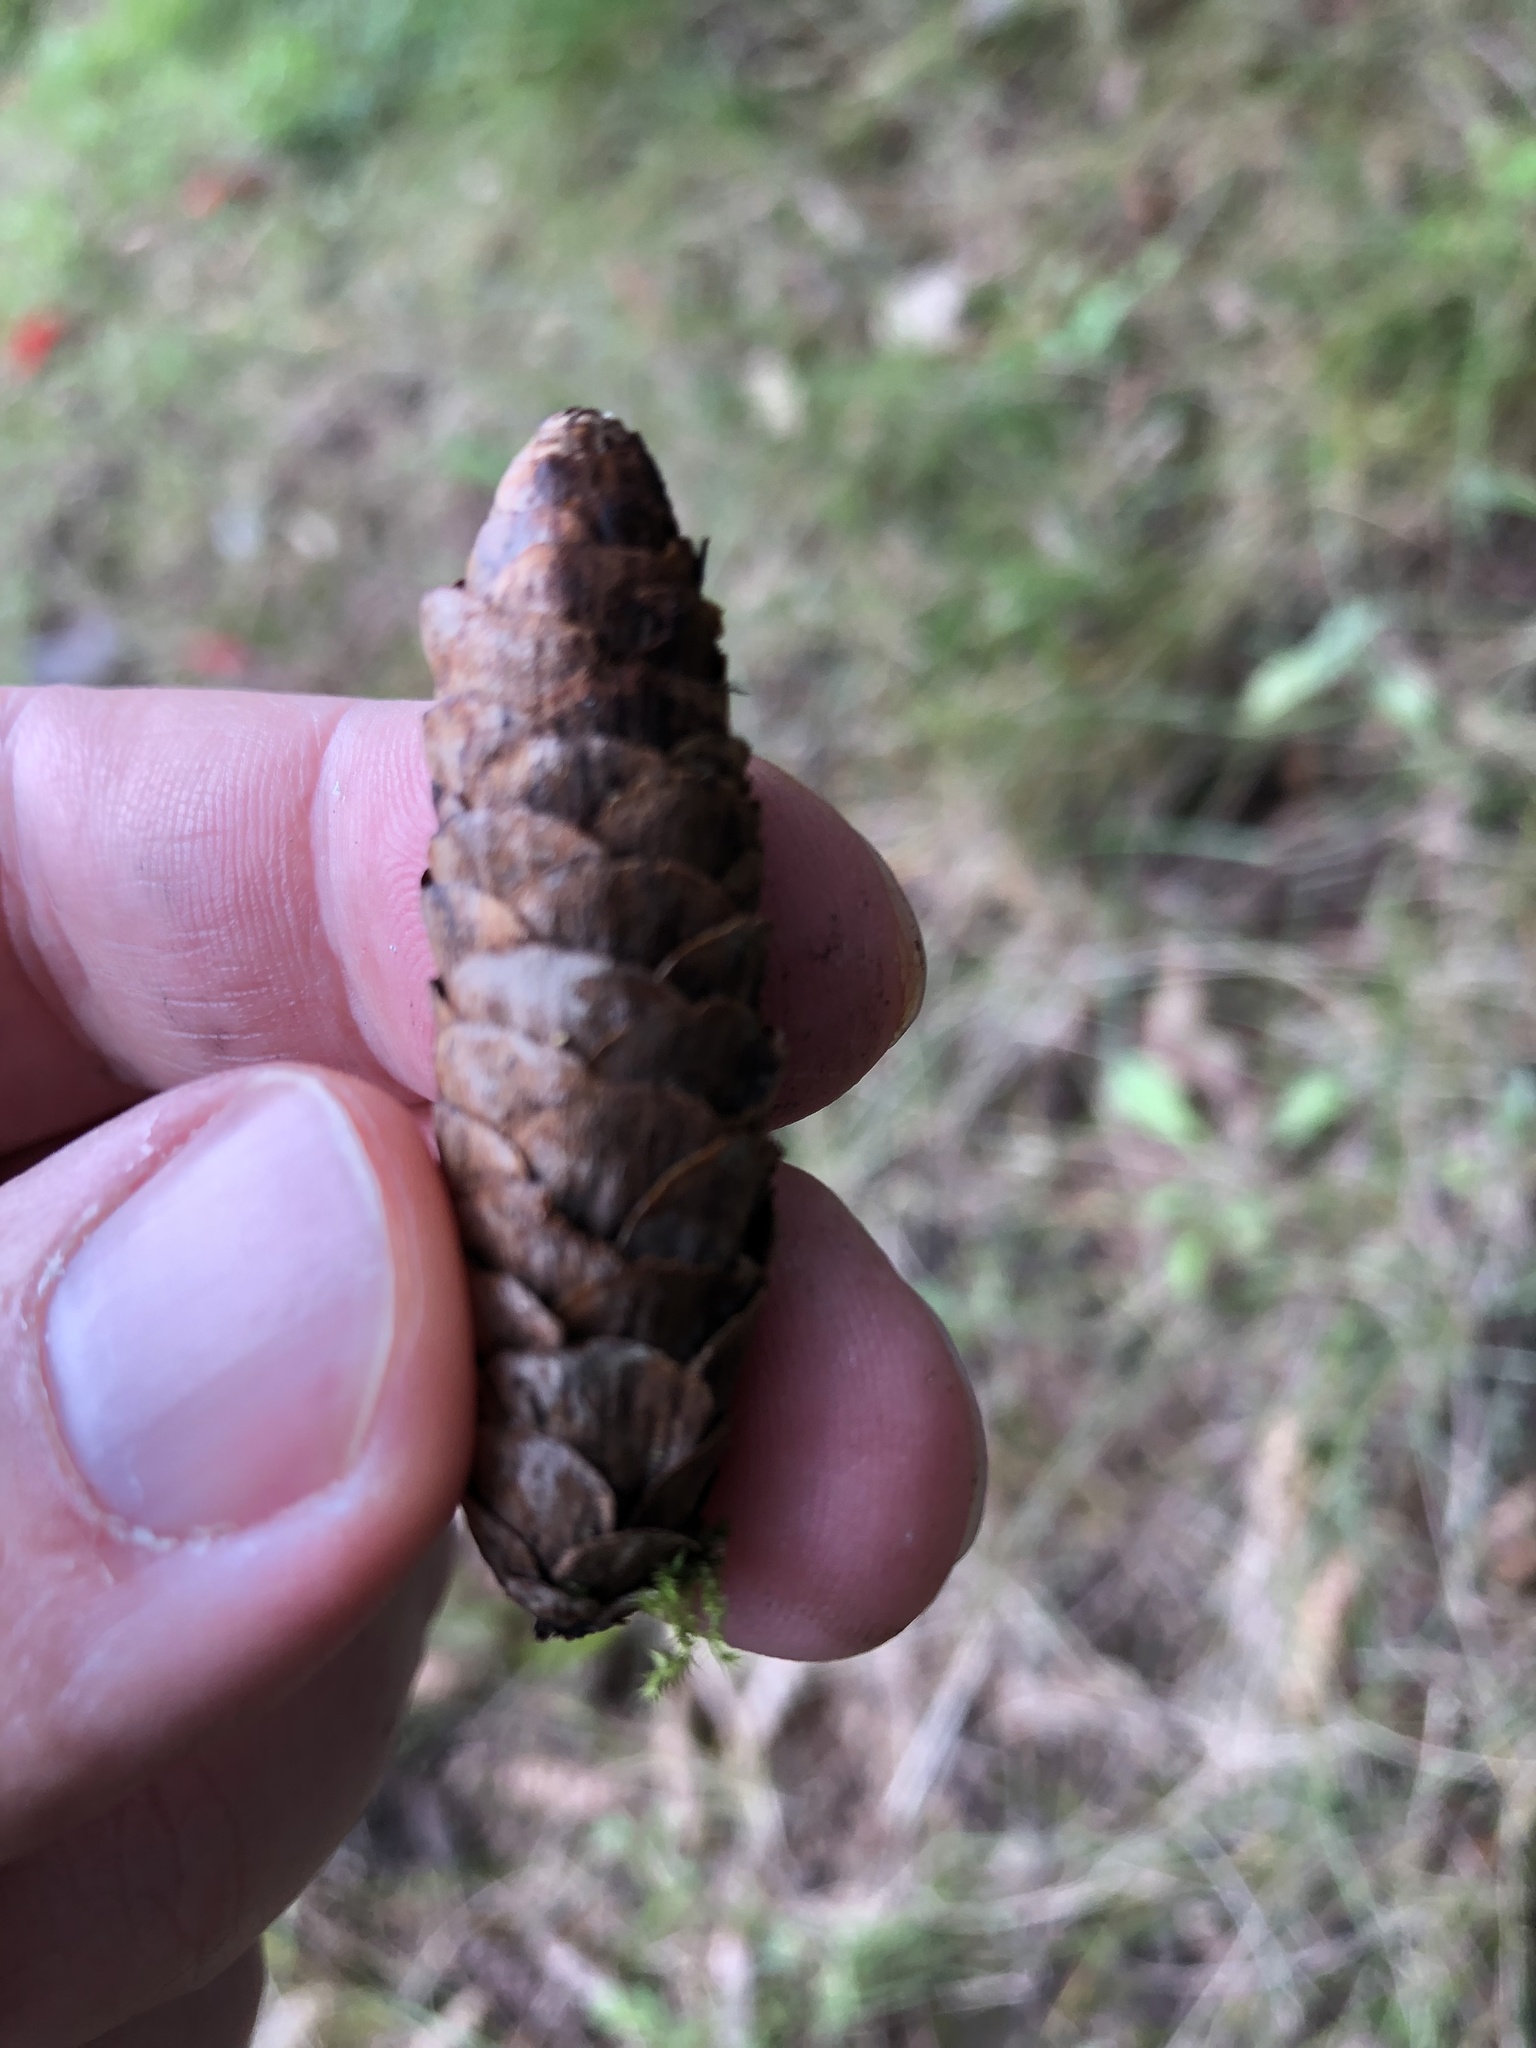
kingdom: Plantae
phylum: Tracheophyta
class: Pinopsida
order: Pinales
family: Pinaceae
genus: Picea
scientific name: Picea glauca
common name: White spruce
